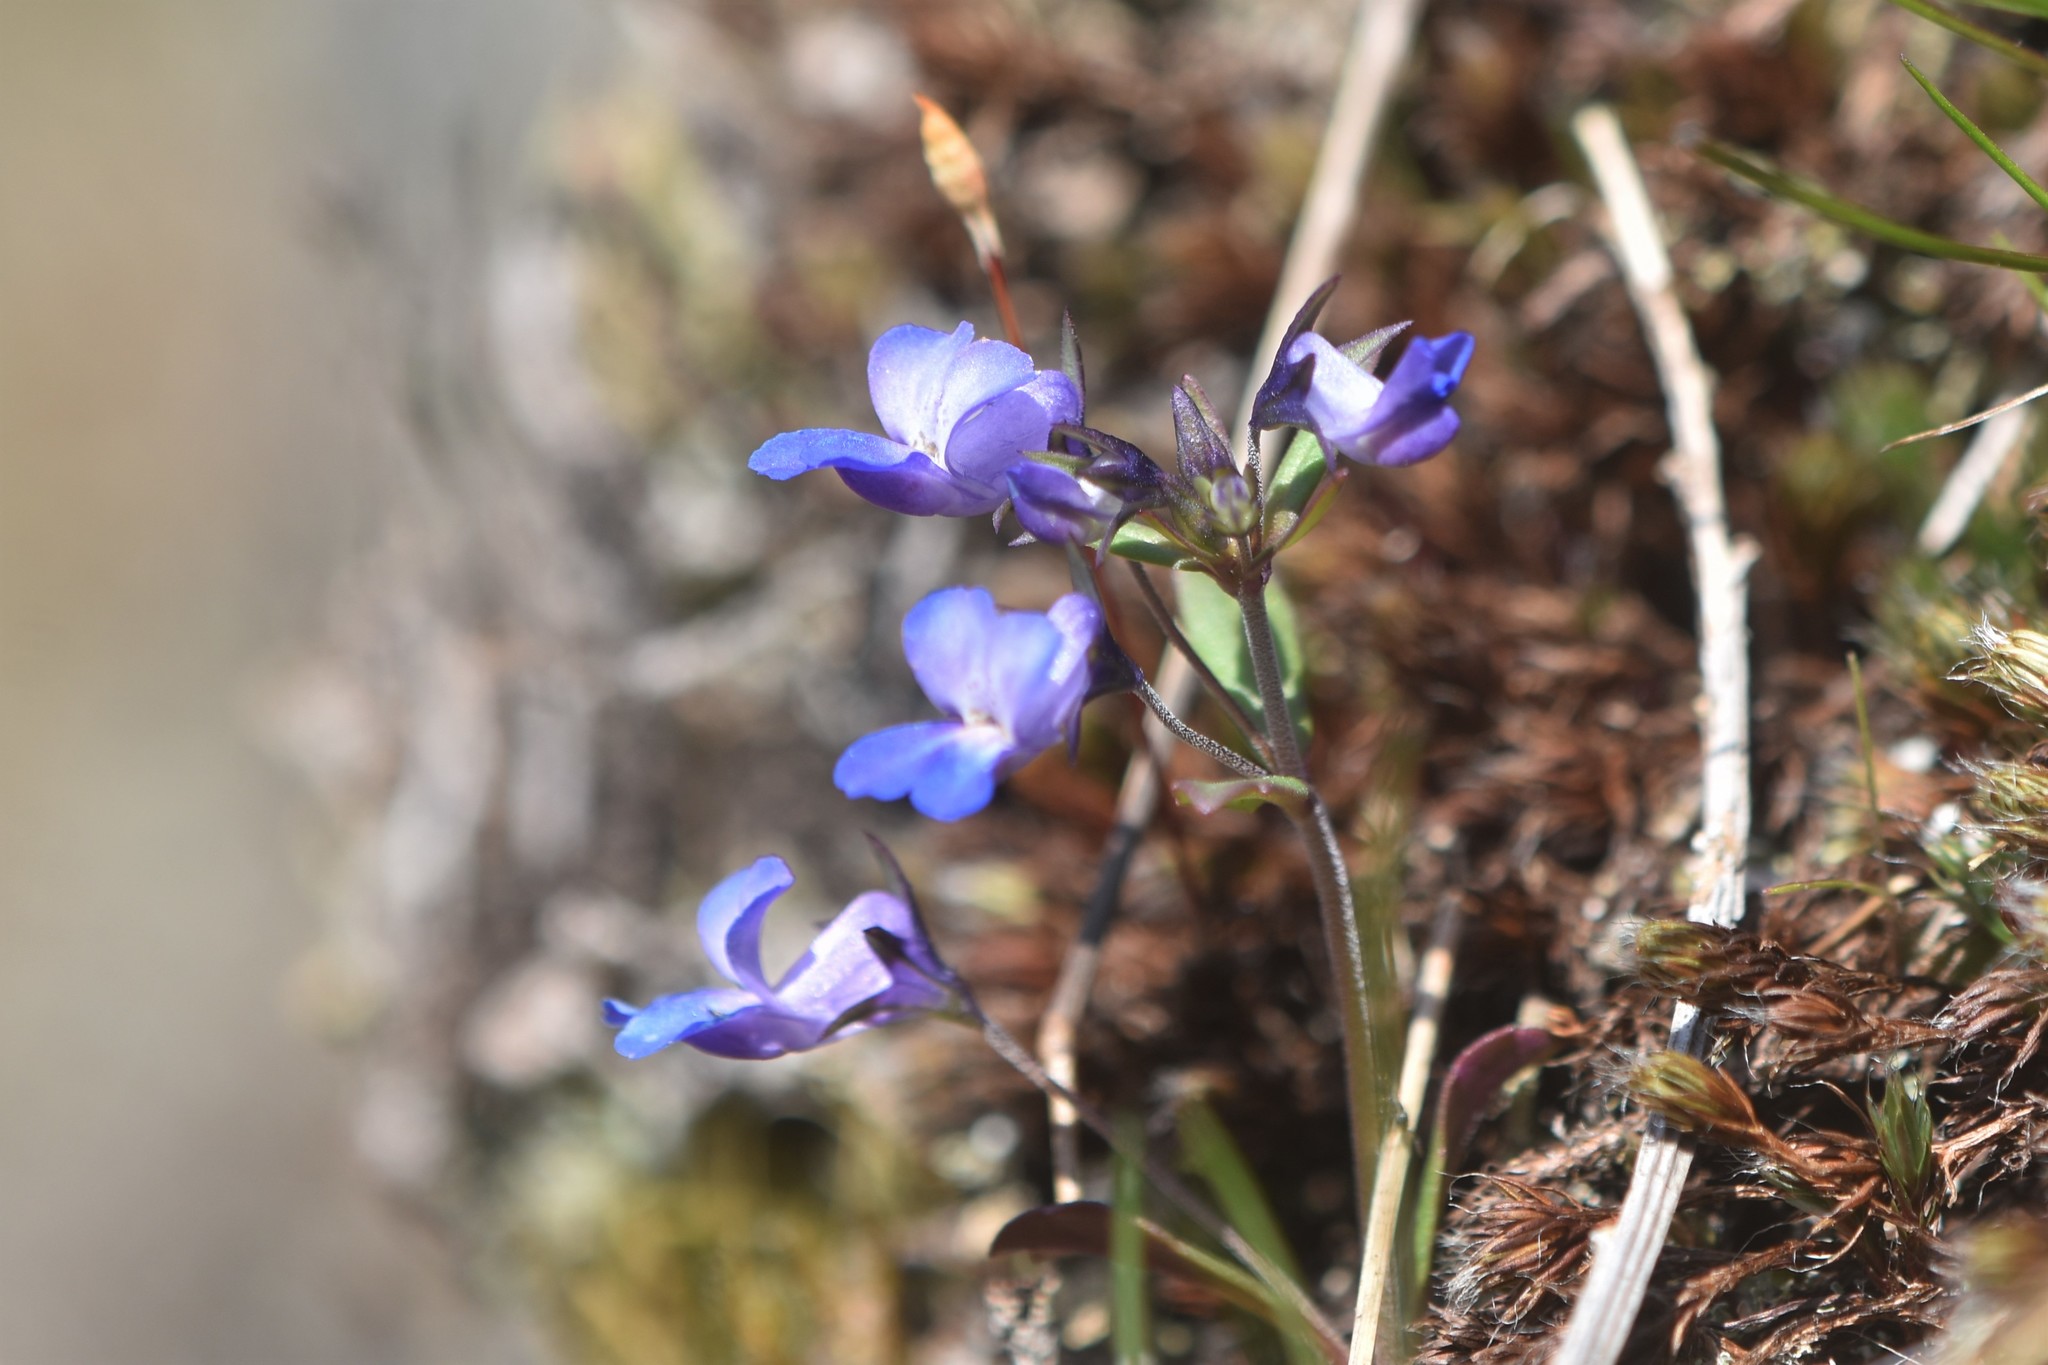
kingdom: Plantae
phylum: Tracheophyta
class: Magnoliopsida
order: Lamiales
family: Plantaginaceae
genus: Collinsia
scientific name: Collinsia grandiflora
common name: Large-flower blue-eyed-mary
